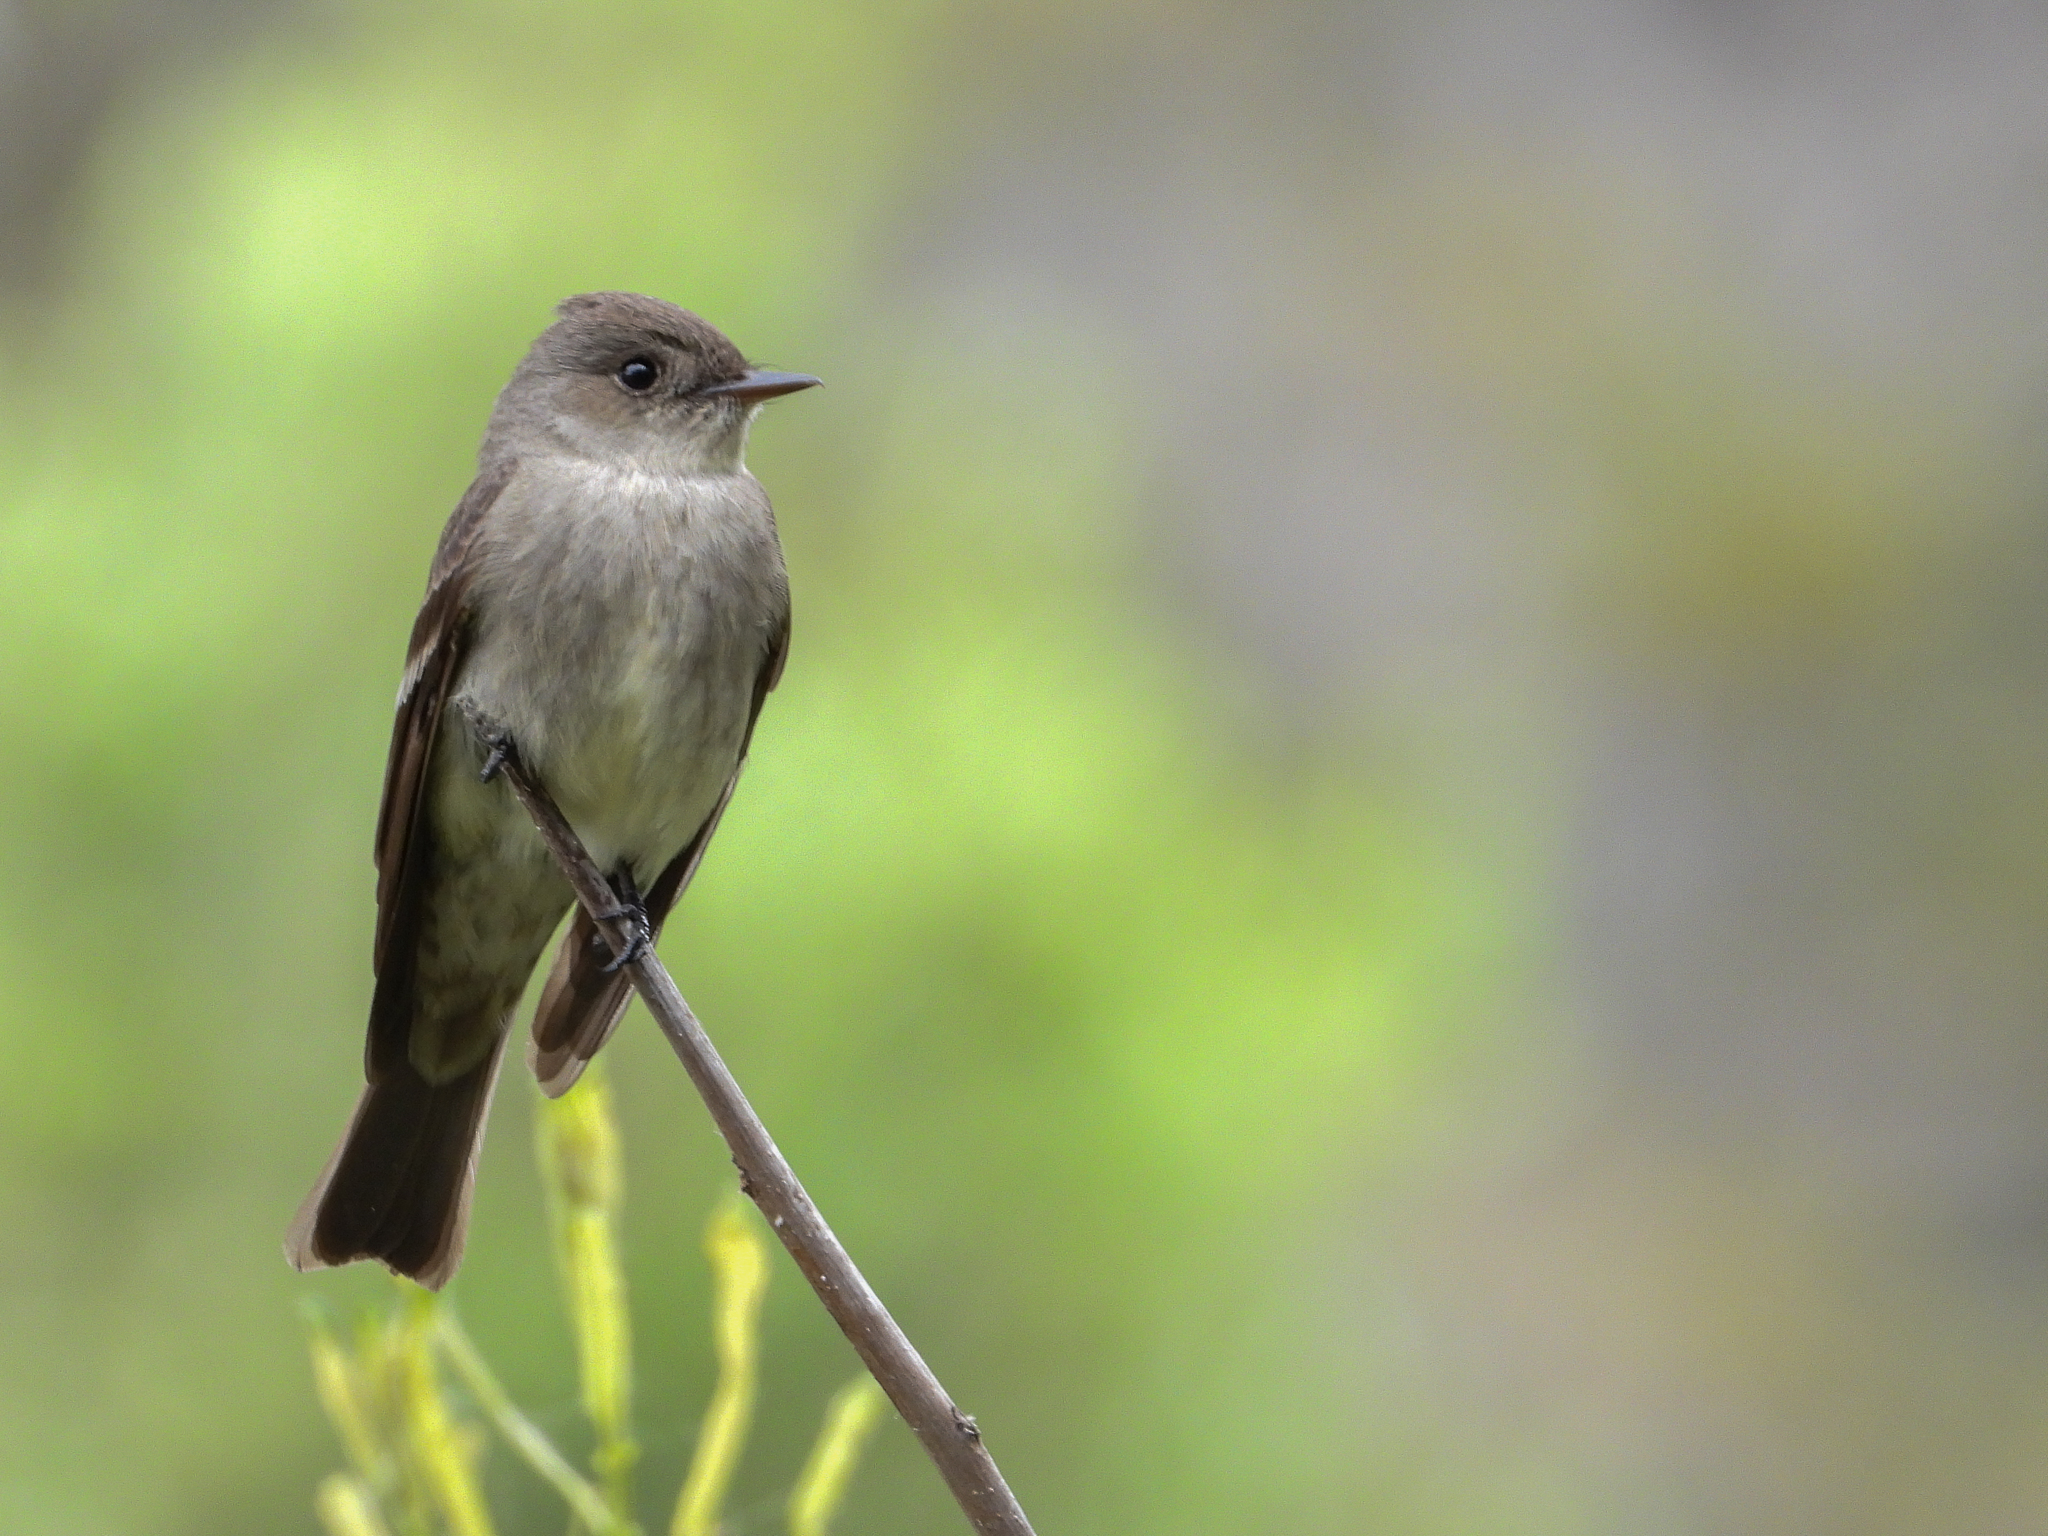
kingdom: Animalia
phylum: Chordata
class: Aves
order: Passeriformes
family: Tyrannidae
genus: Contopus
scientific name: Contopus sordidulus
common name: Western wood-pewee
